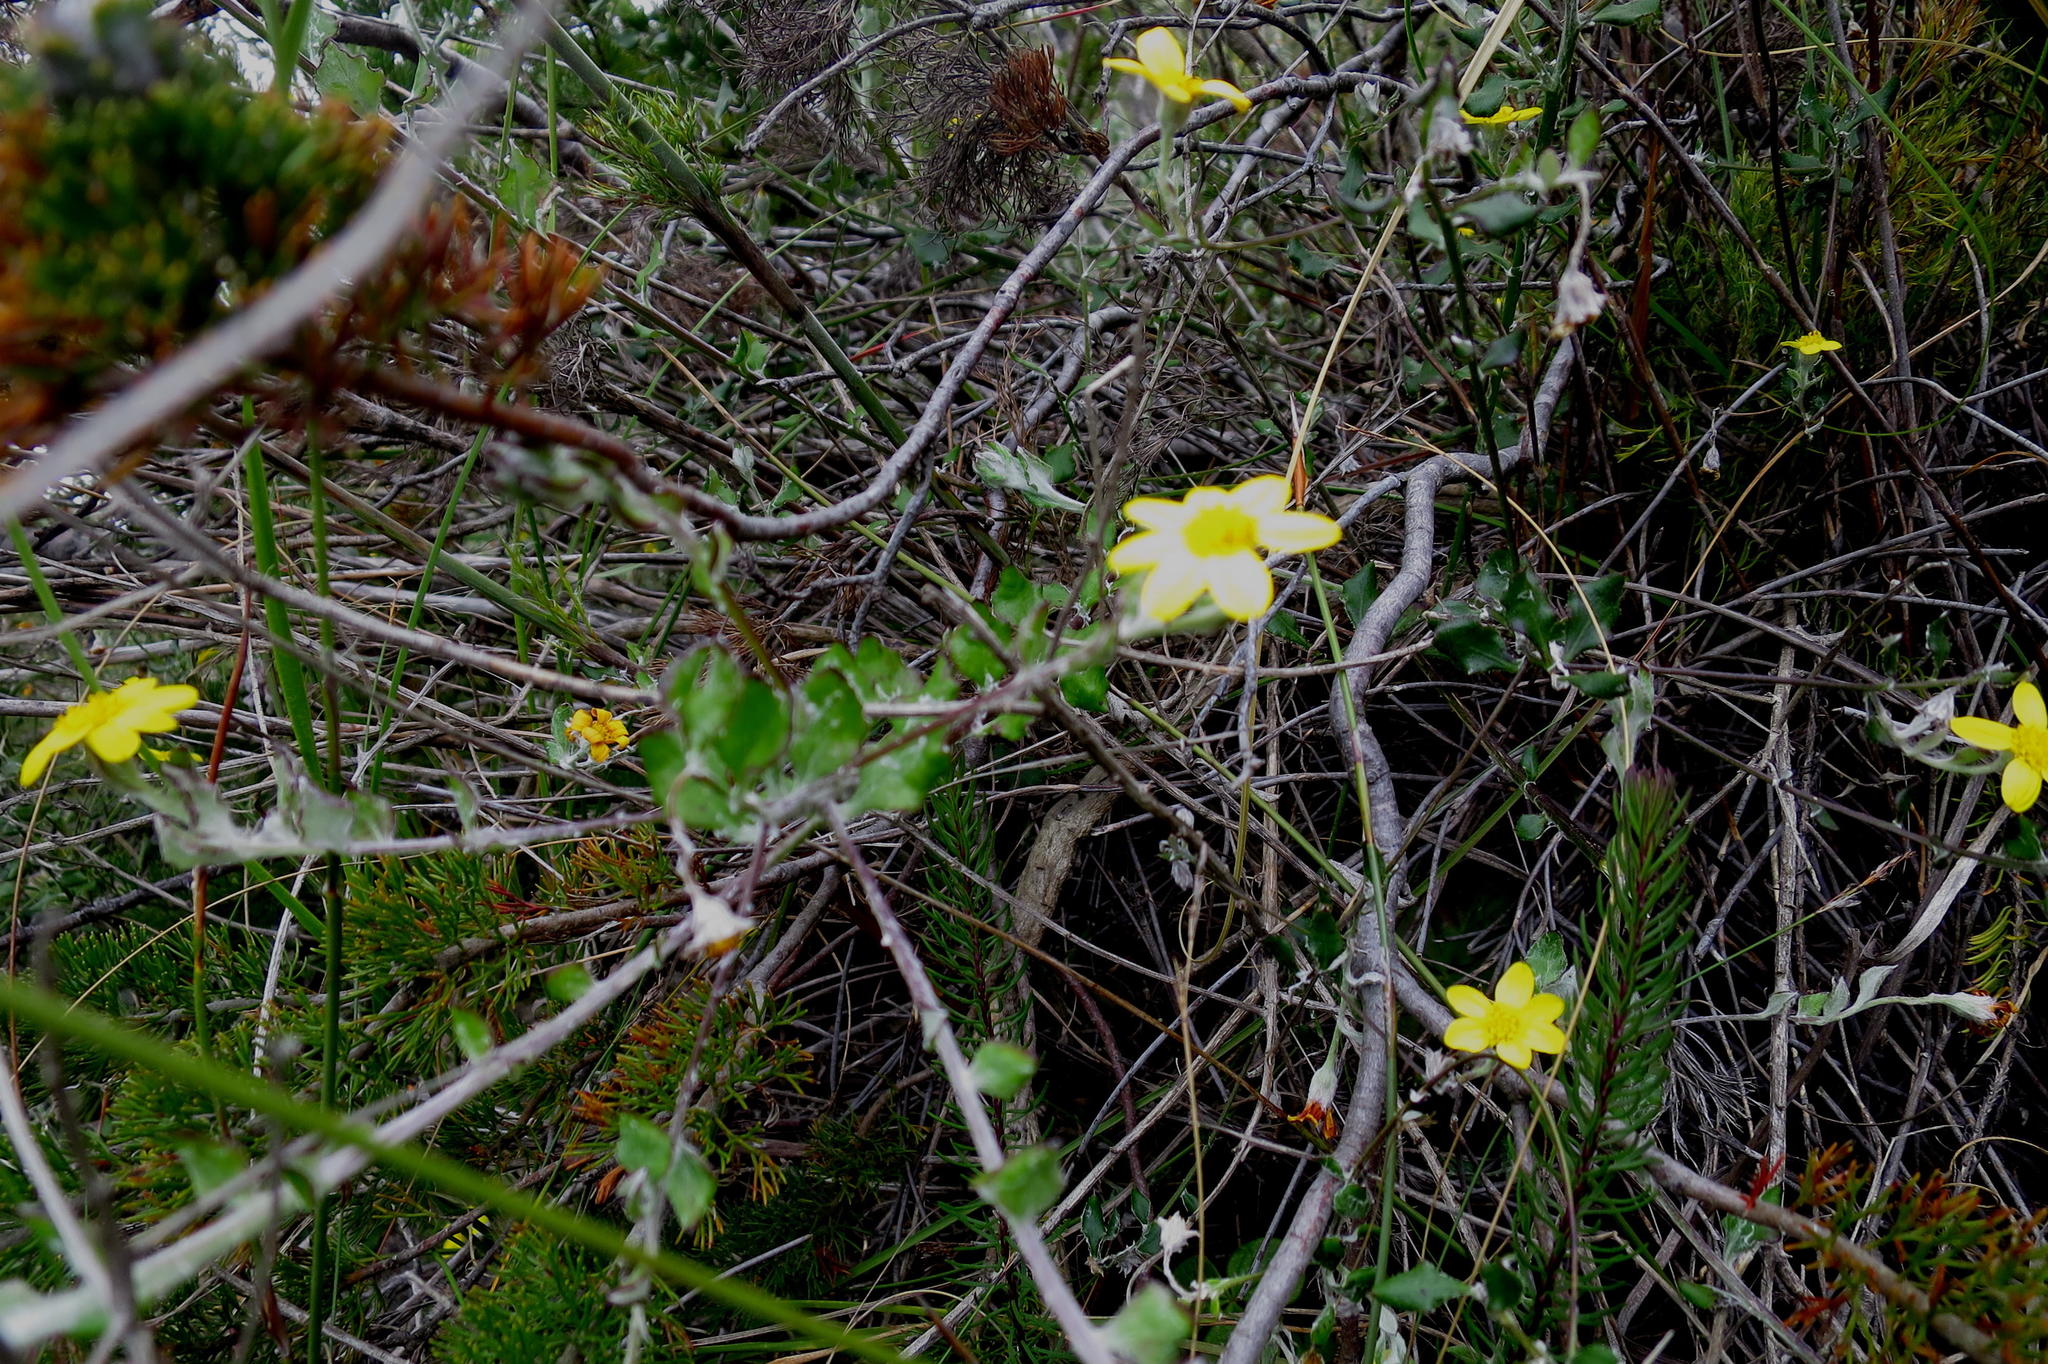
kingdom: Plantae
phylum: Tracheophyta
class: Magnoliopsida
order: Asterales
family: Asteraceae
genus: Osteospermum
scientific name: Osteospermum elsieae
